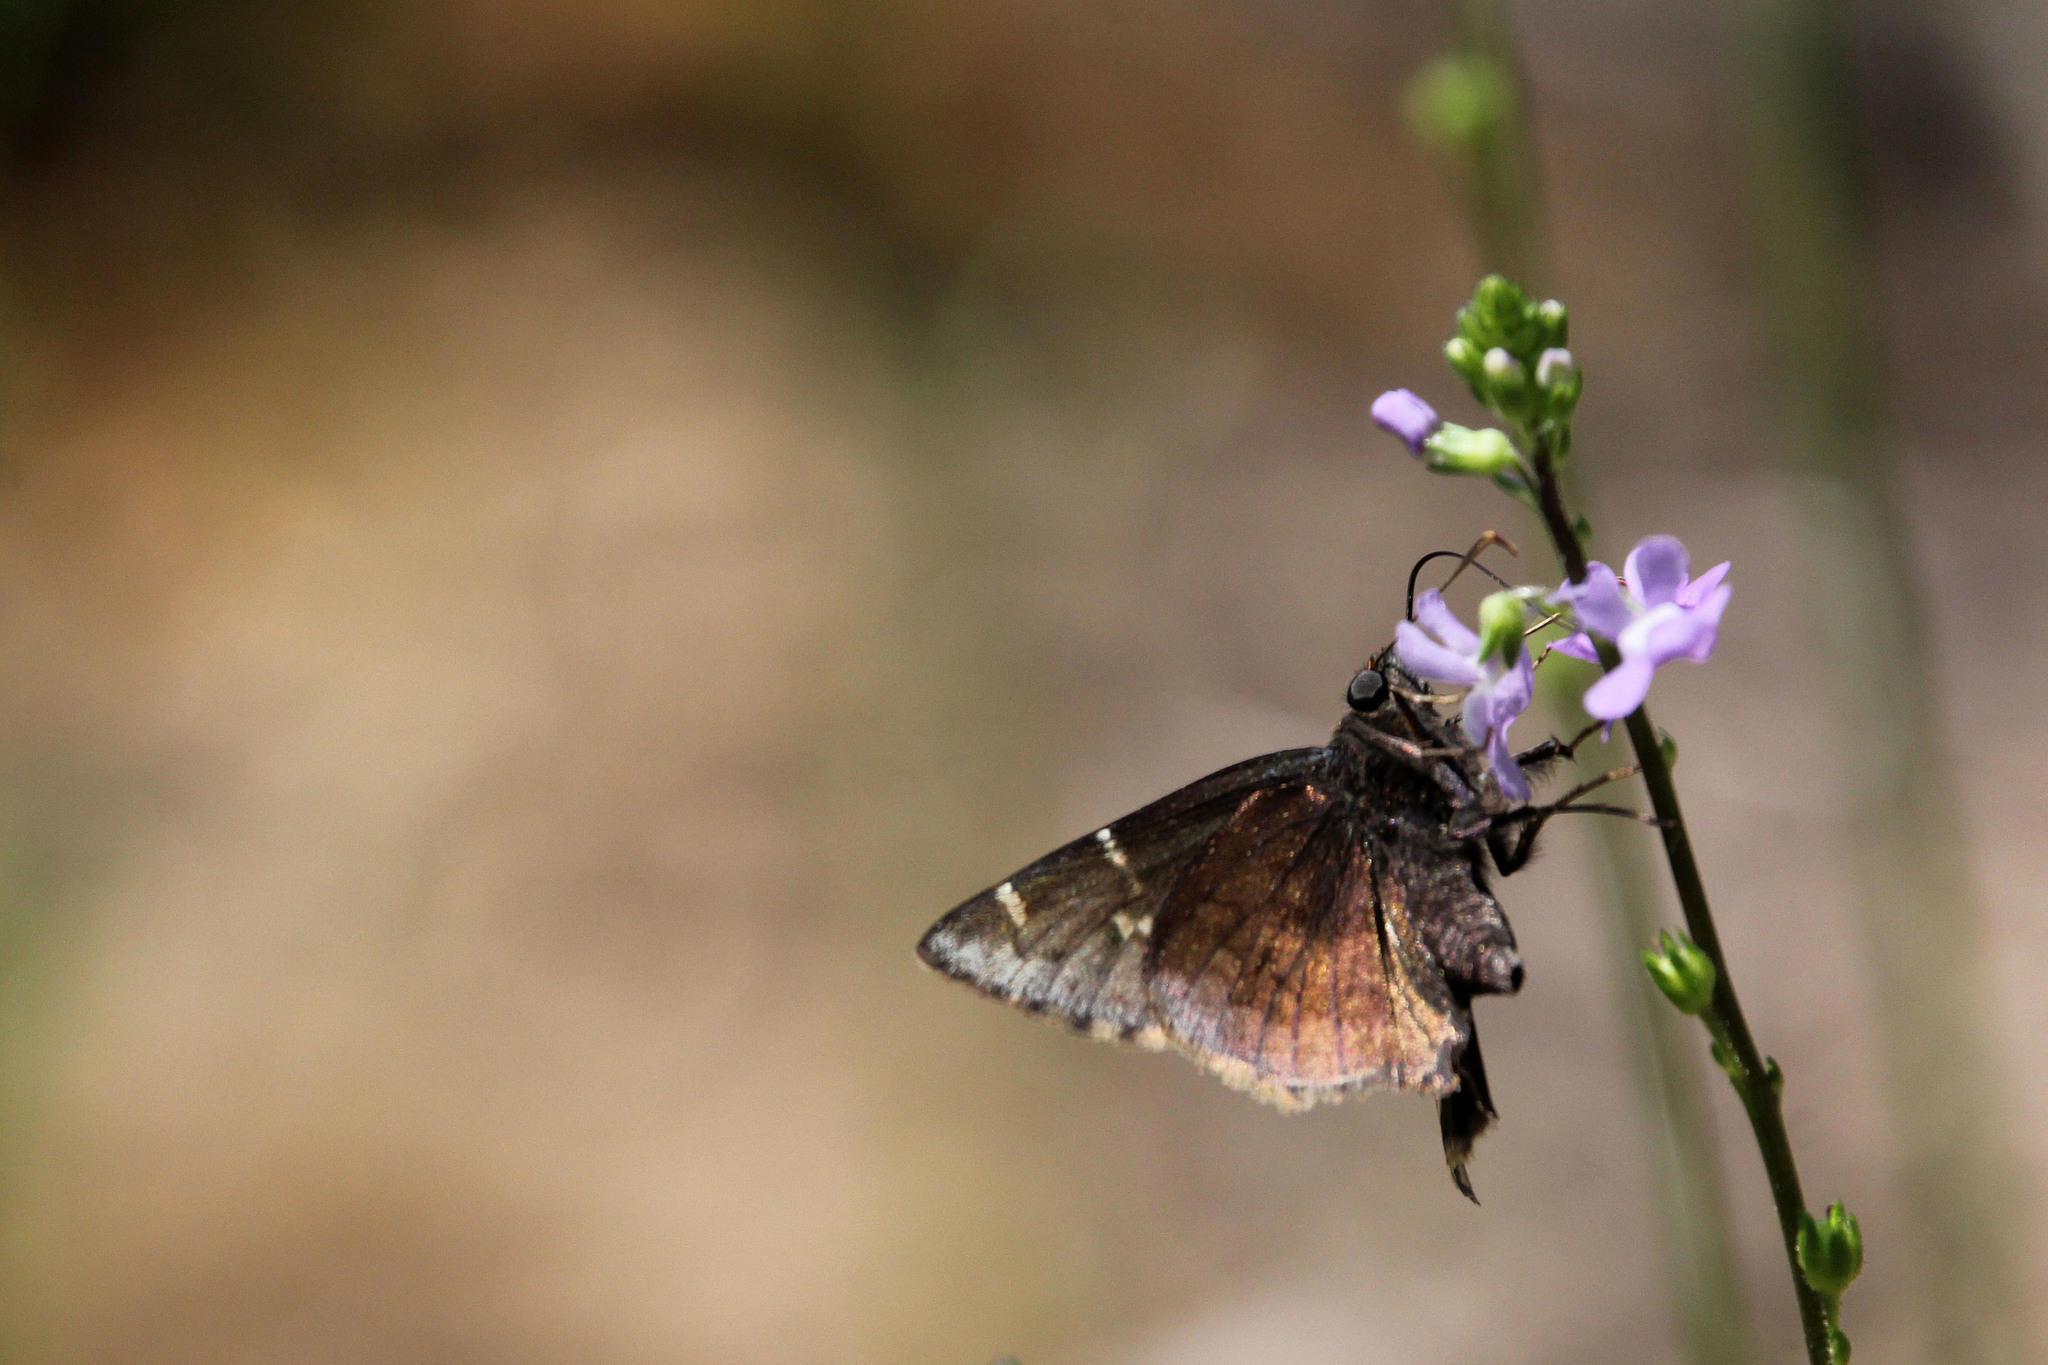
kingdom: Animalia
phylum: Arthropoda
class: Insecta
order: Lepidoptera
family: Hesperiidae
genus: Thorybes
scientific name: Thorybes pylades
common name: Northern cloudywing
